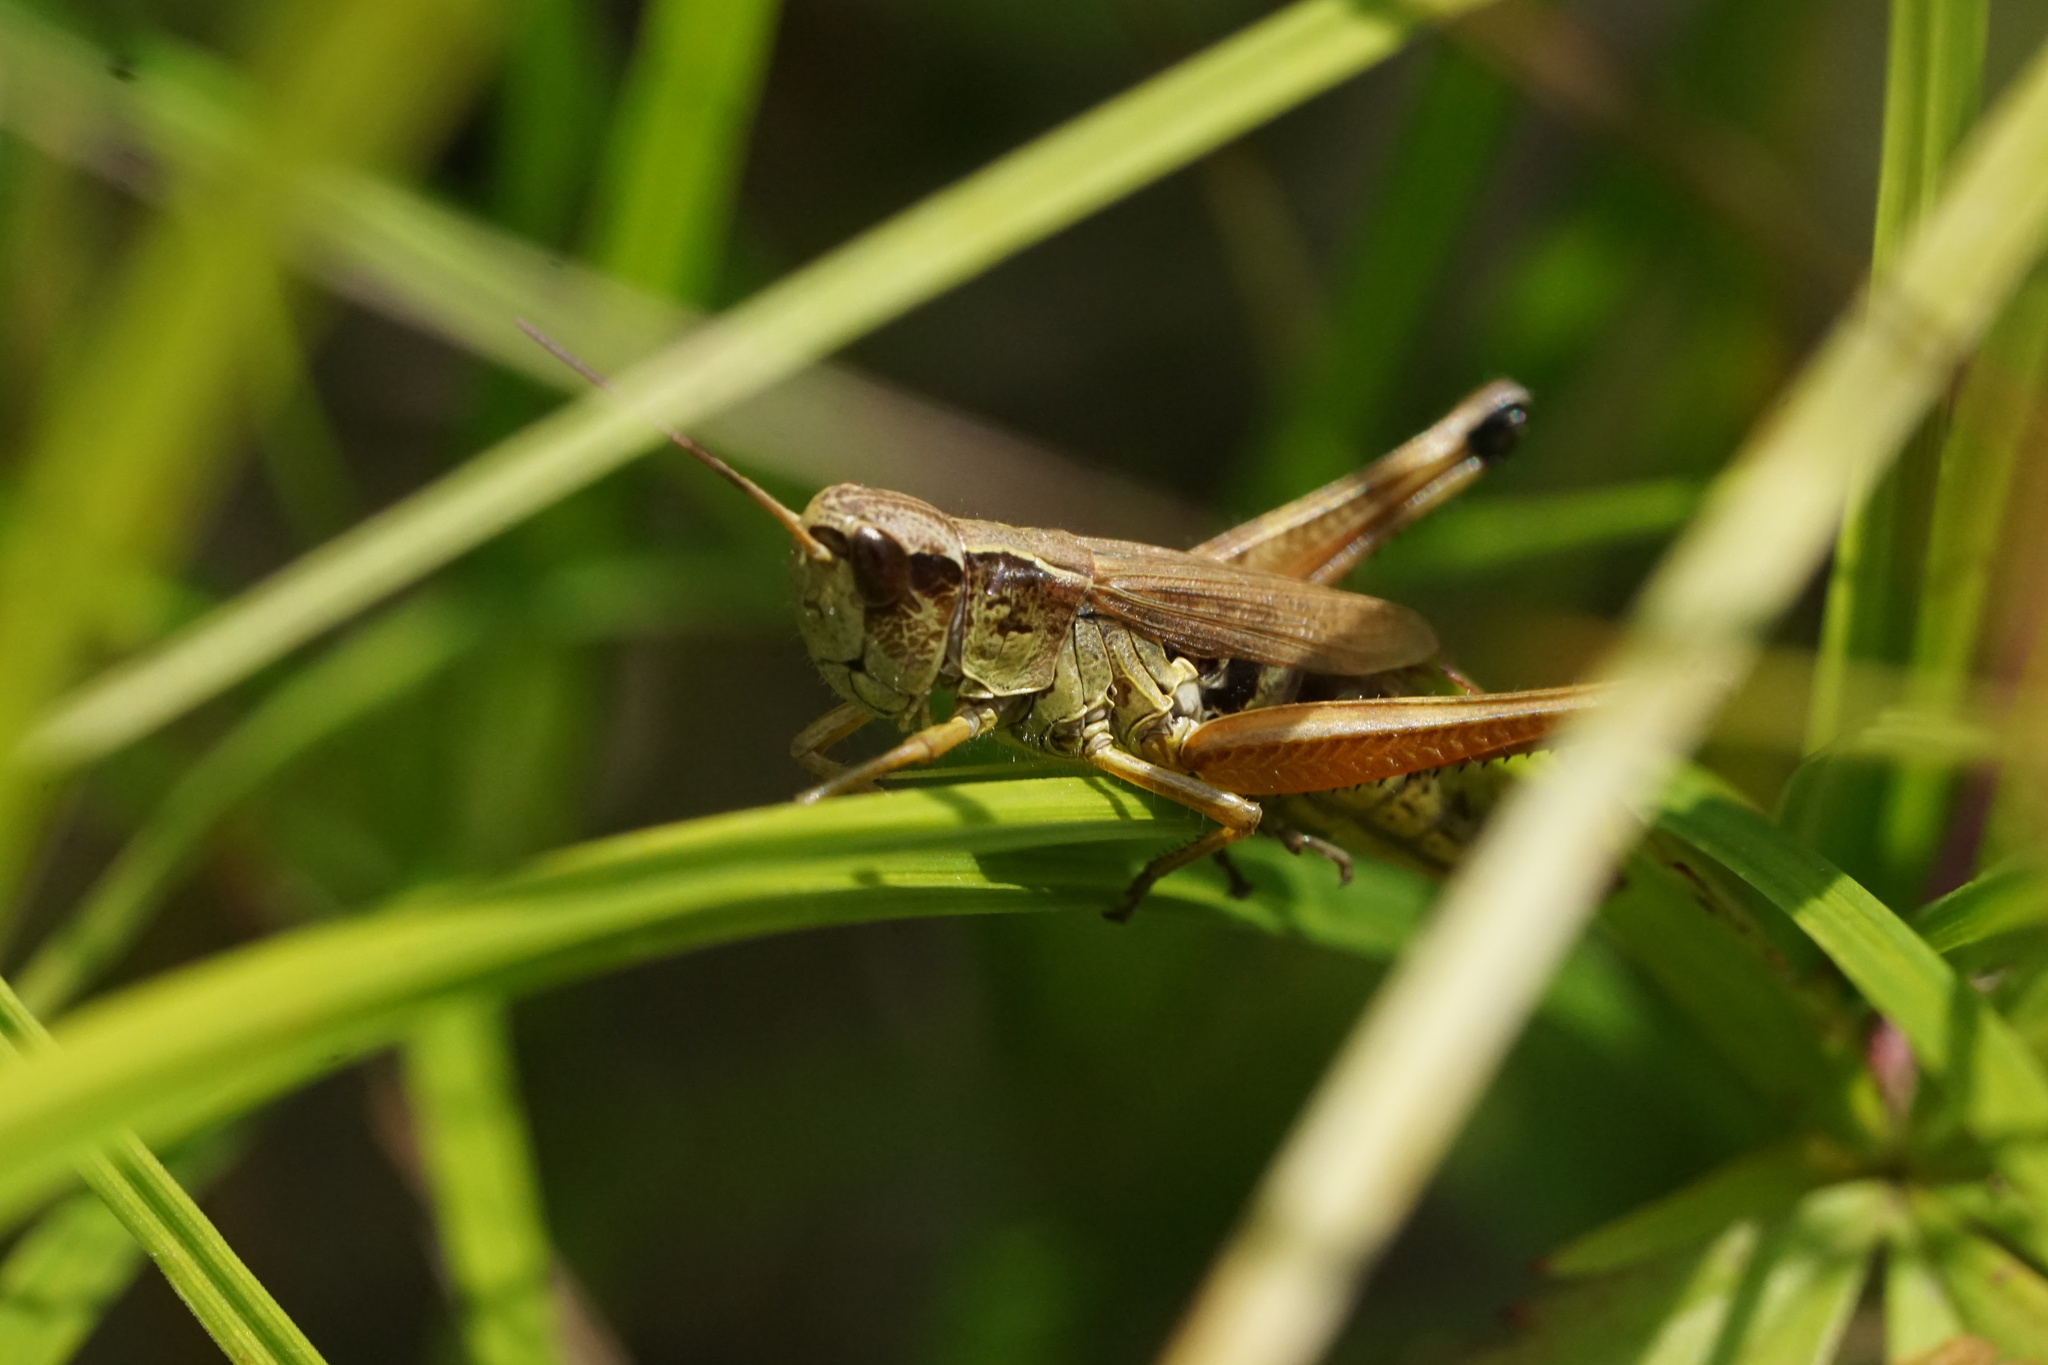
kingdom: Animalia
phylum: Arthropoda
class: Insecta
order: Orthoptera
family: Acrididae
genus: Pseudochorthippus
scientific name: Pseudochorthippus curtipennis
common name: Marsh meadow grasshopper
